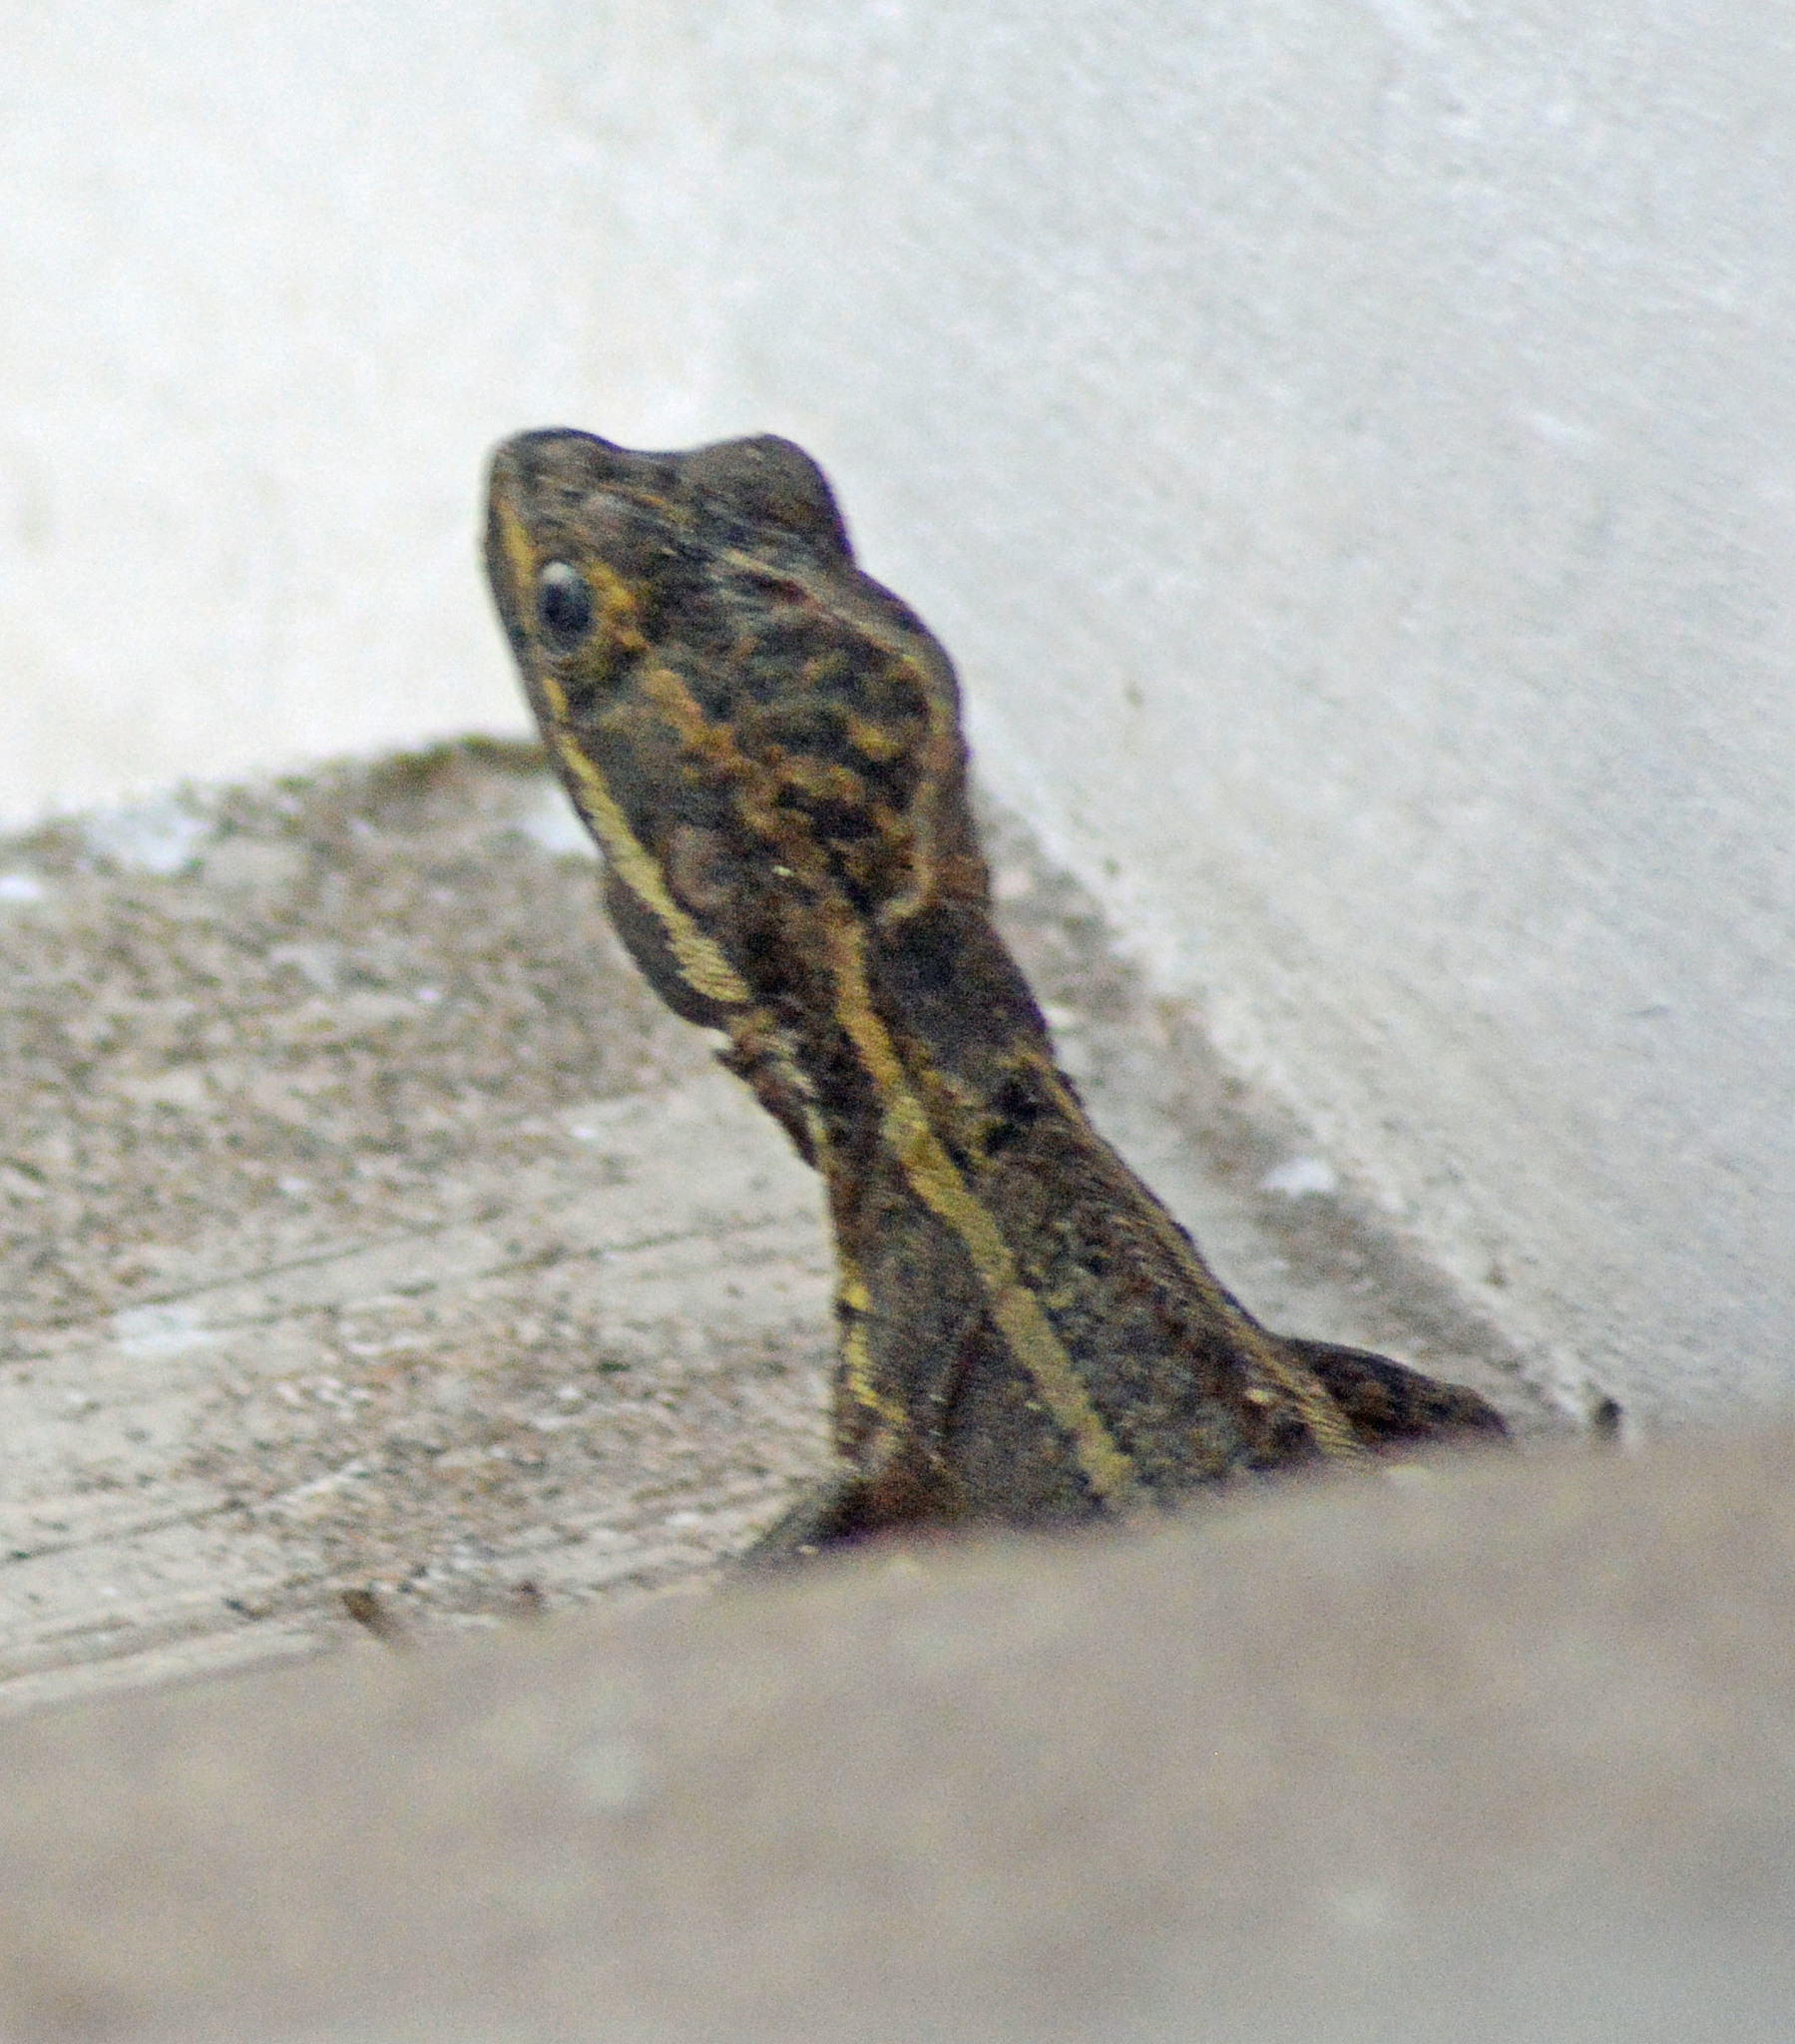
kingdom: Animalia
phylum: Chordata
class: Squamata
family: Corytophanidae
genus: Basiliscus
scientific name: Basiliscus vittatus
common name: Brown basilisk
